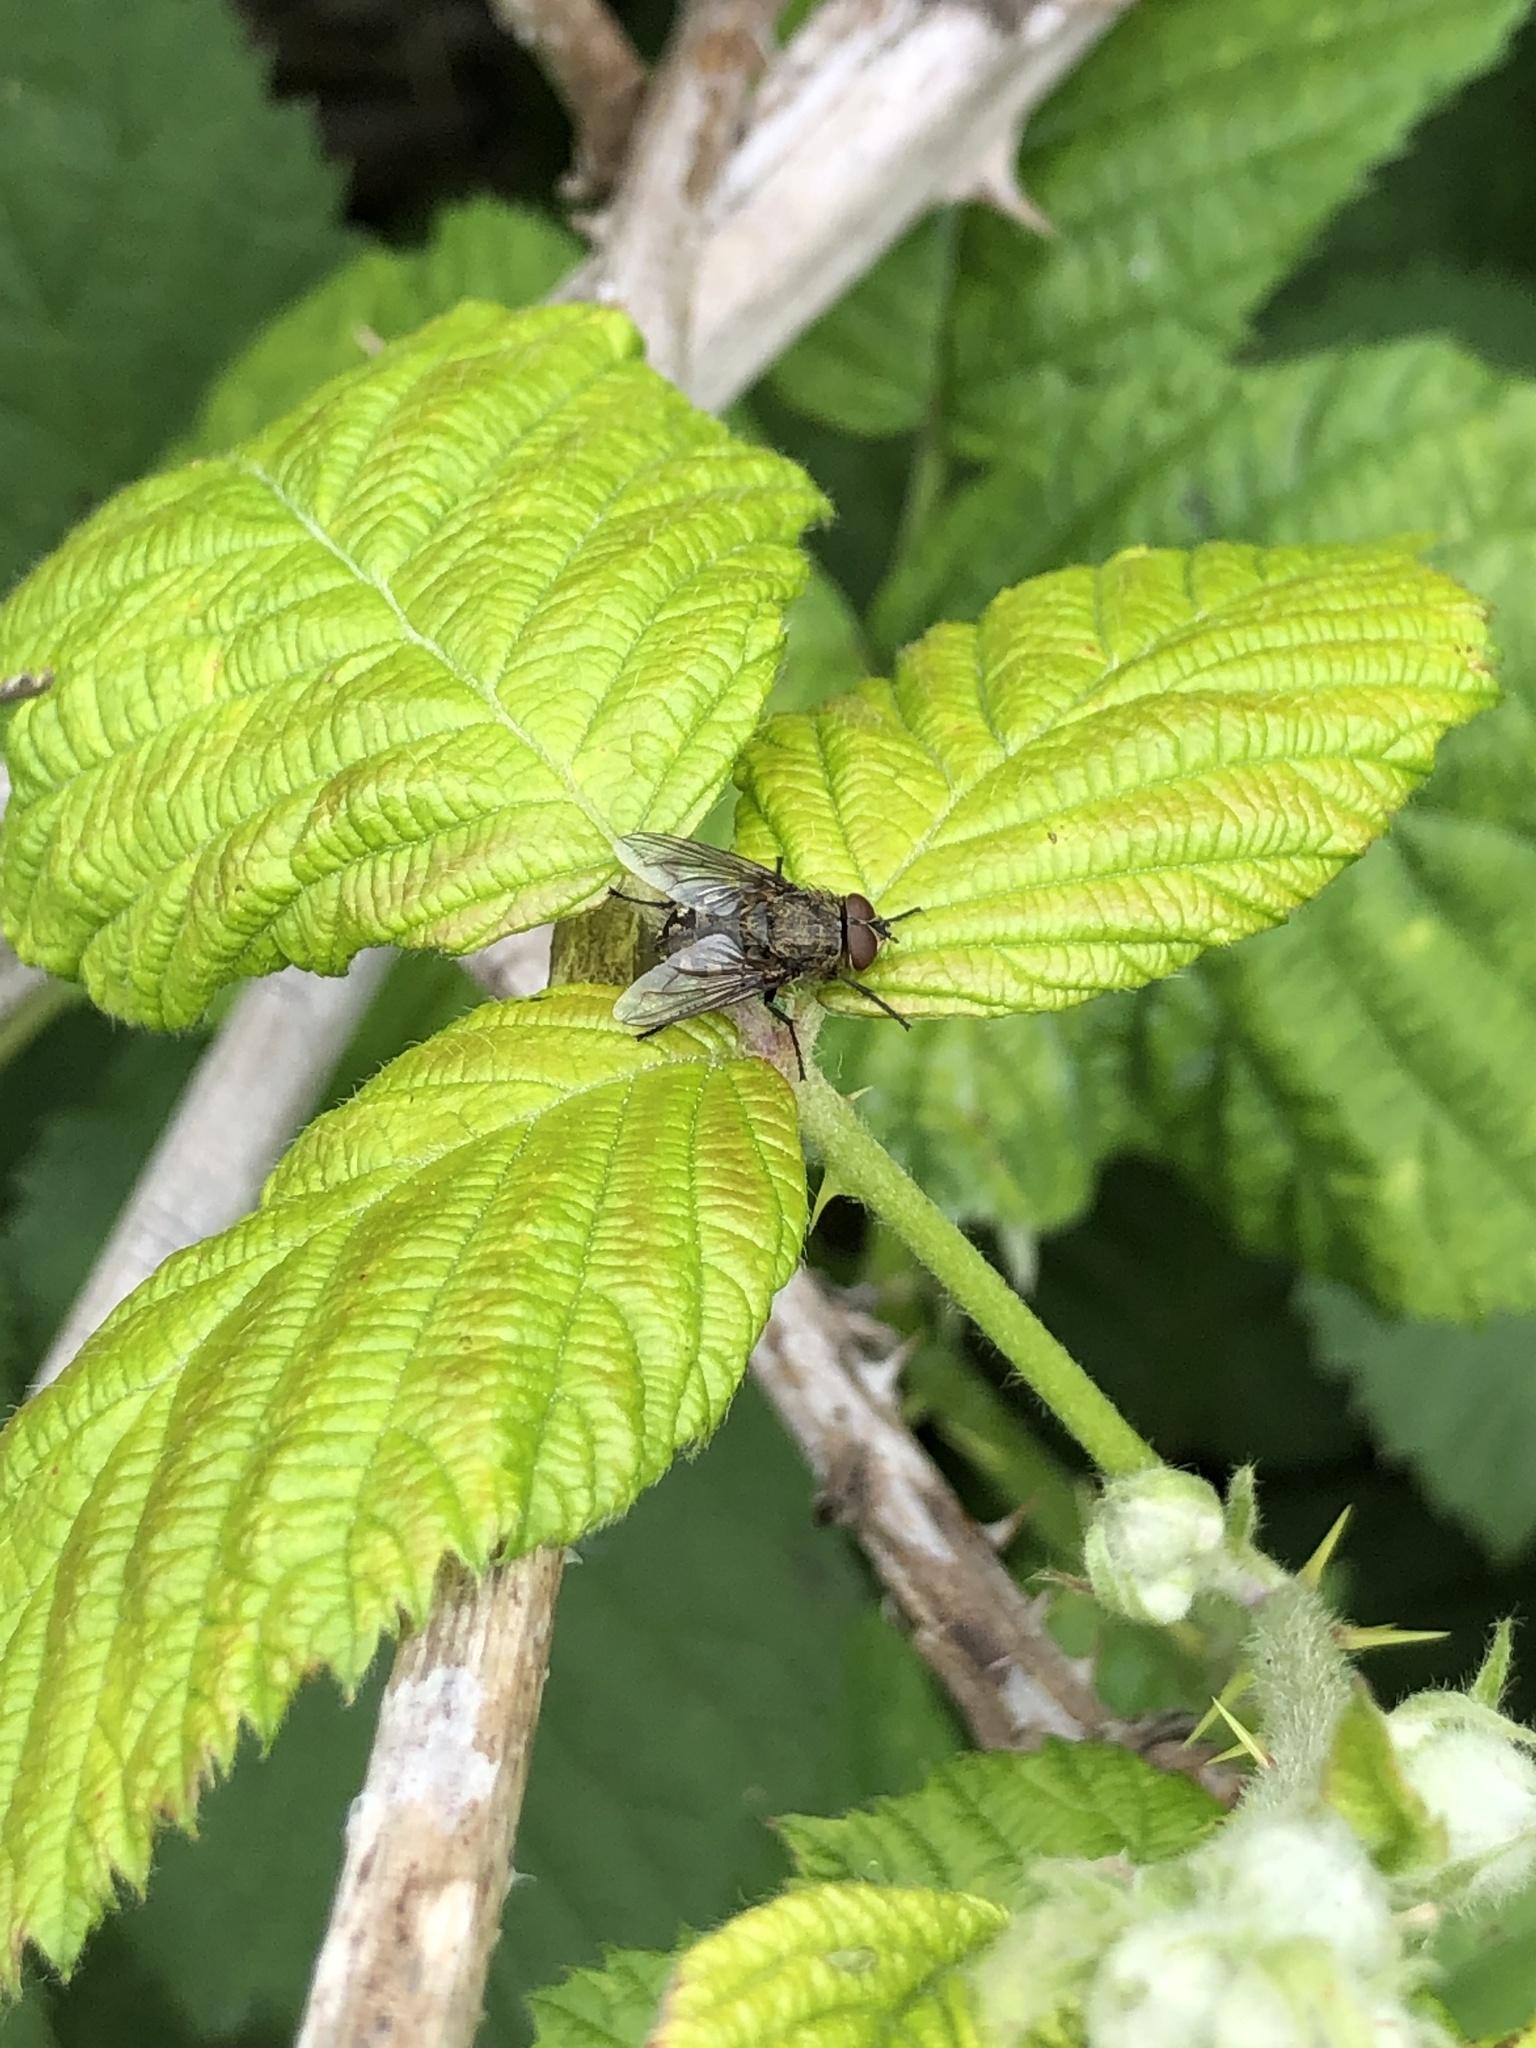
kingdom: Animalia
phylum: Arthropoda
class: Insecta
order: Diptera
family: Polleniidae
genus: Pollenia
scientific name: Pollenia
